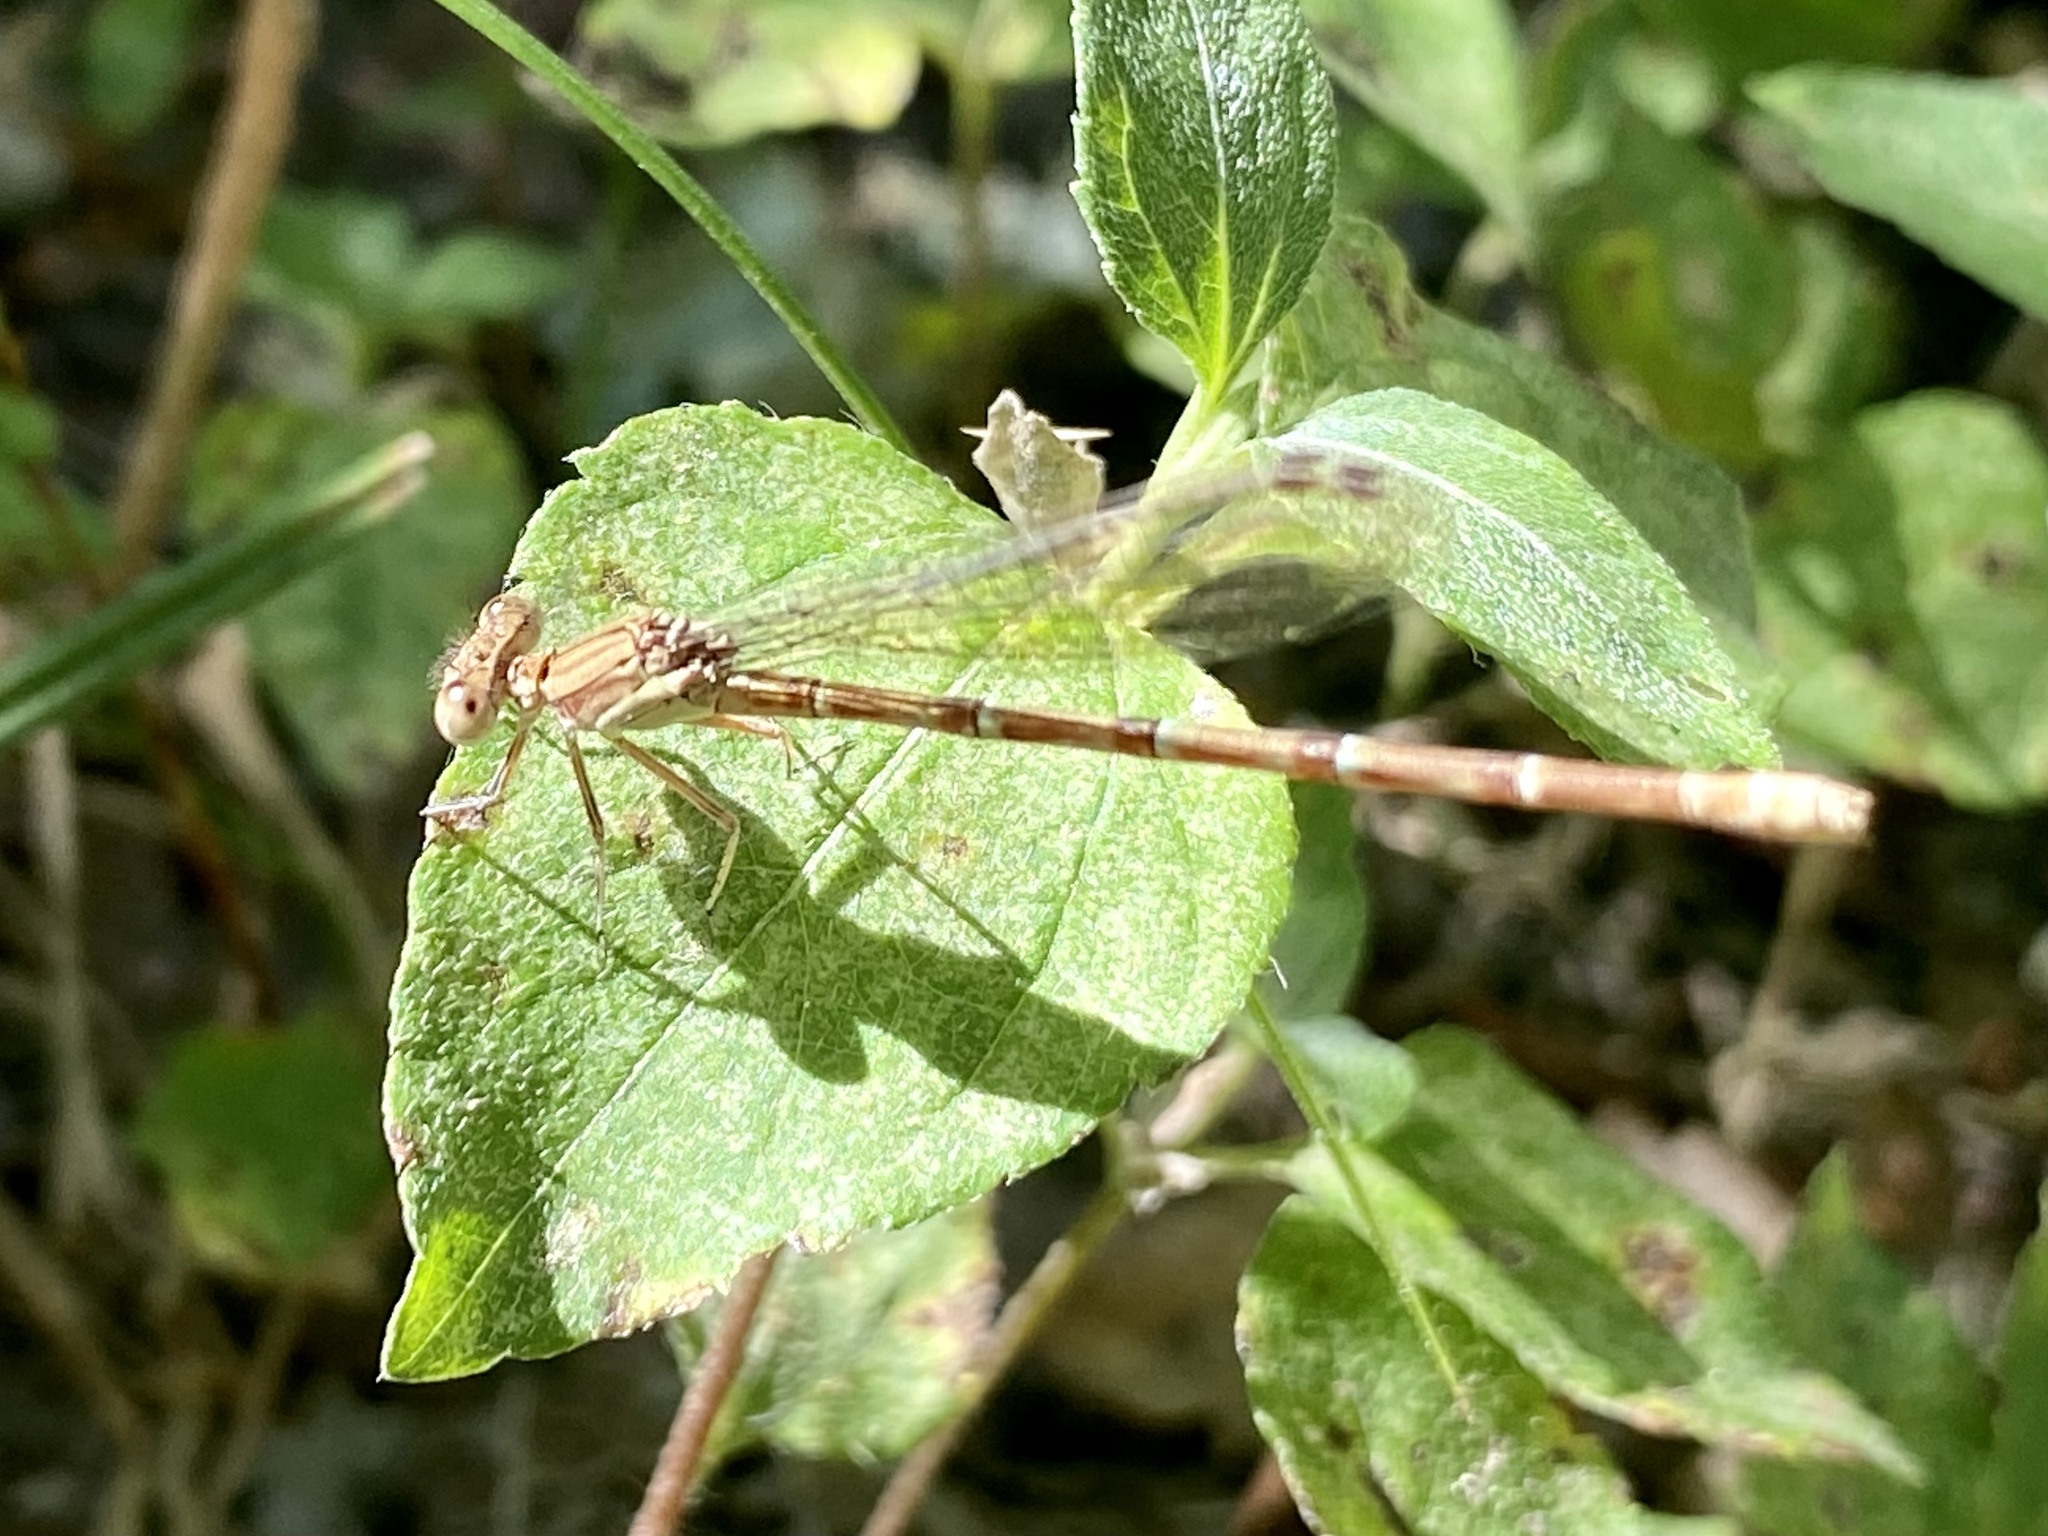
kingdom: Animalia
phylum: Arthropoda
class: Insecta
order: Odonata
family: Coenagrionidae
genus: Argia
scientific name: Argia sedula
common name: Blue-ringed dancer
